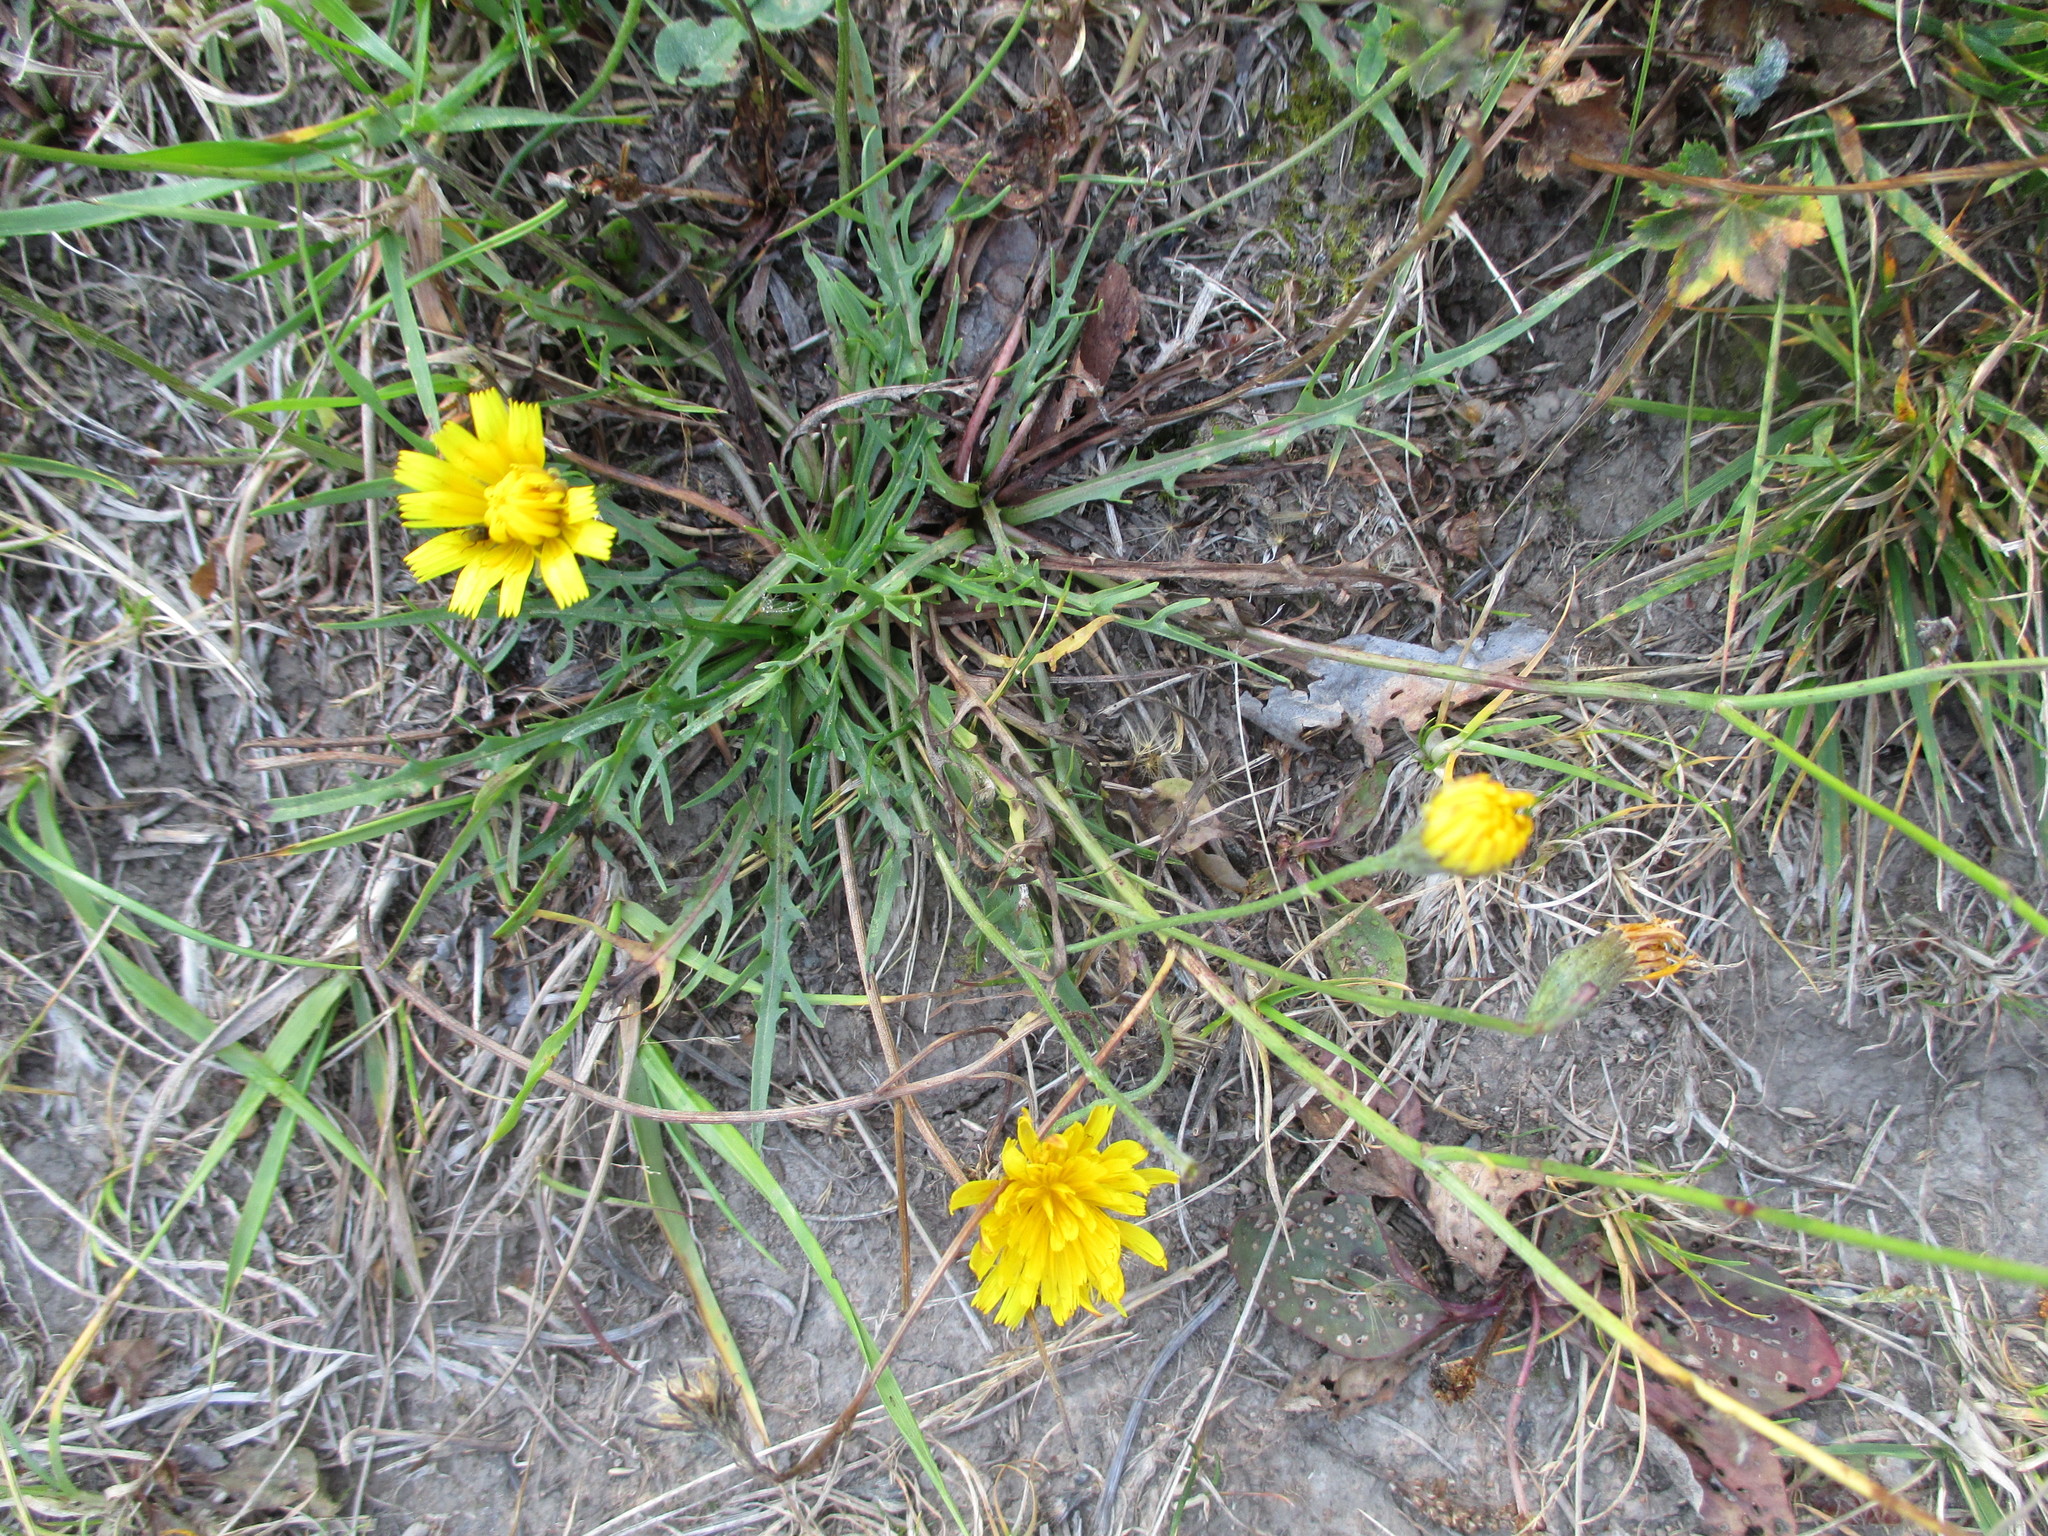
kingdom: Plantae
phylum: Tracheophyta
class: Magnoliopsida
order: Asterales
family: Asteraceae
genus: Scorzoneroides
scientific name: Scorzoneroides autumnalis
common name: Autumn hawkbit
